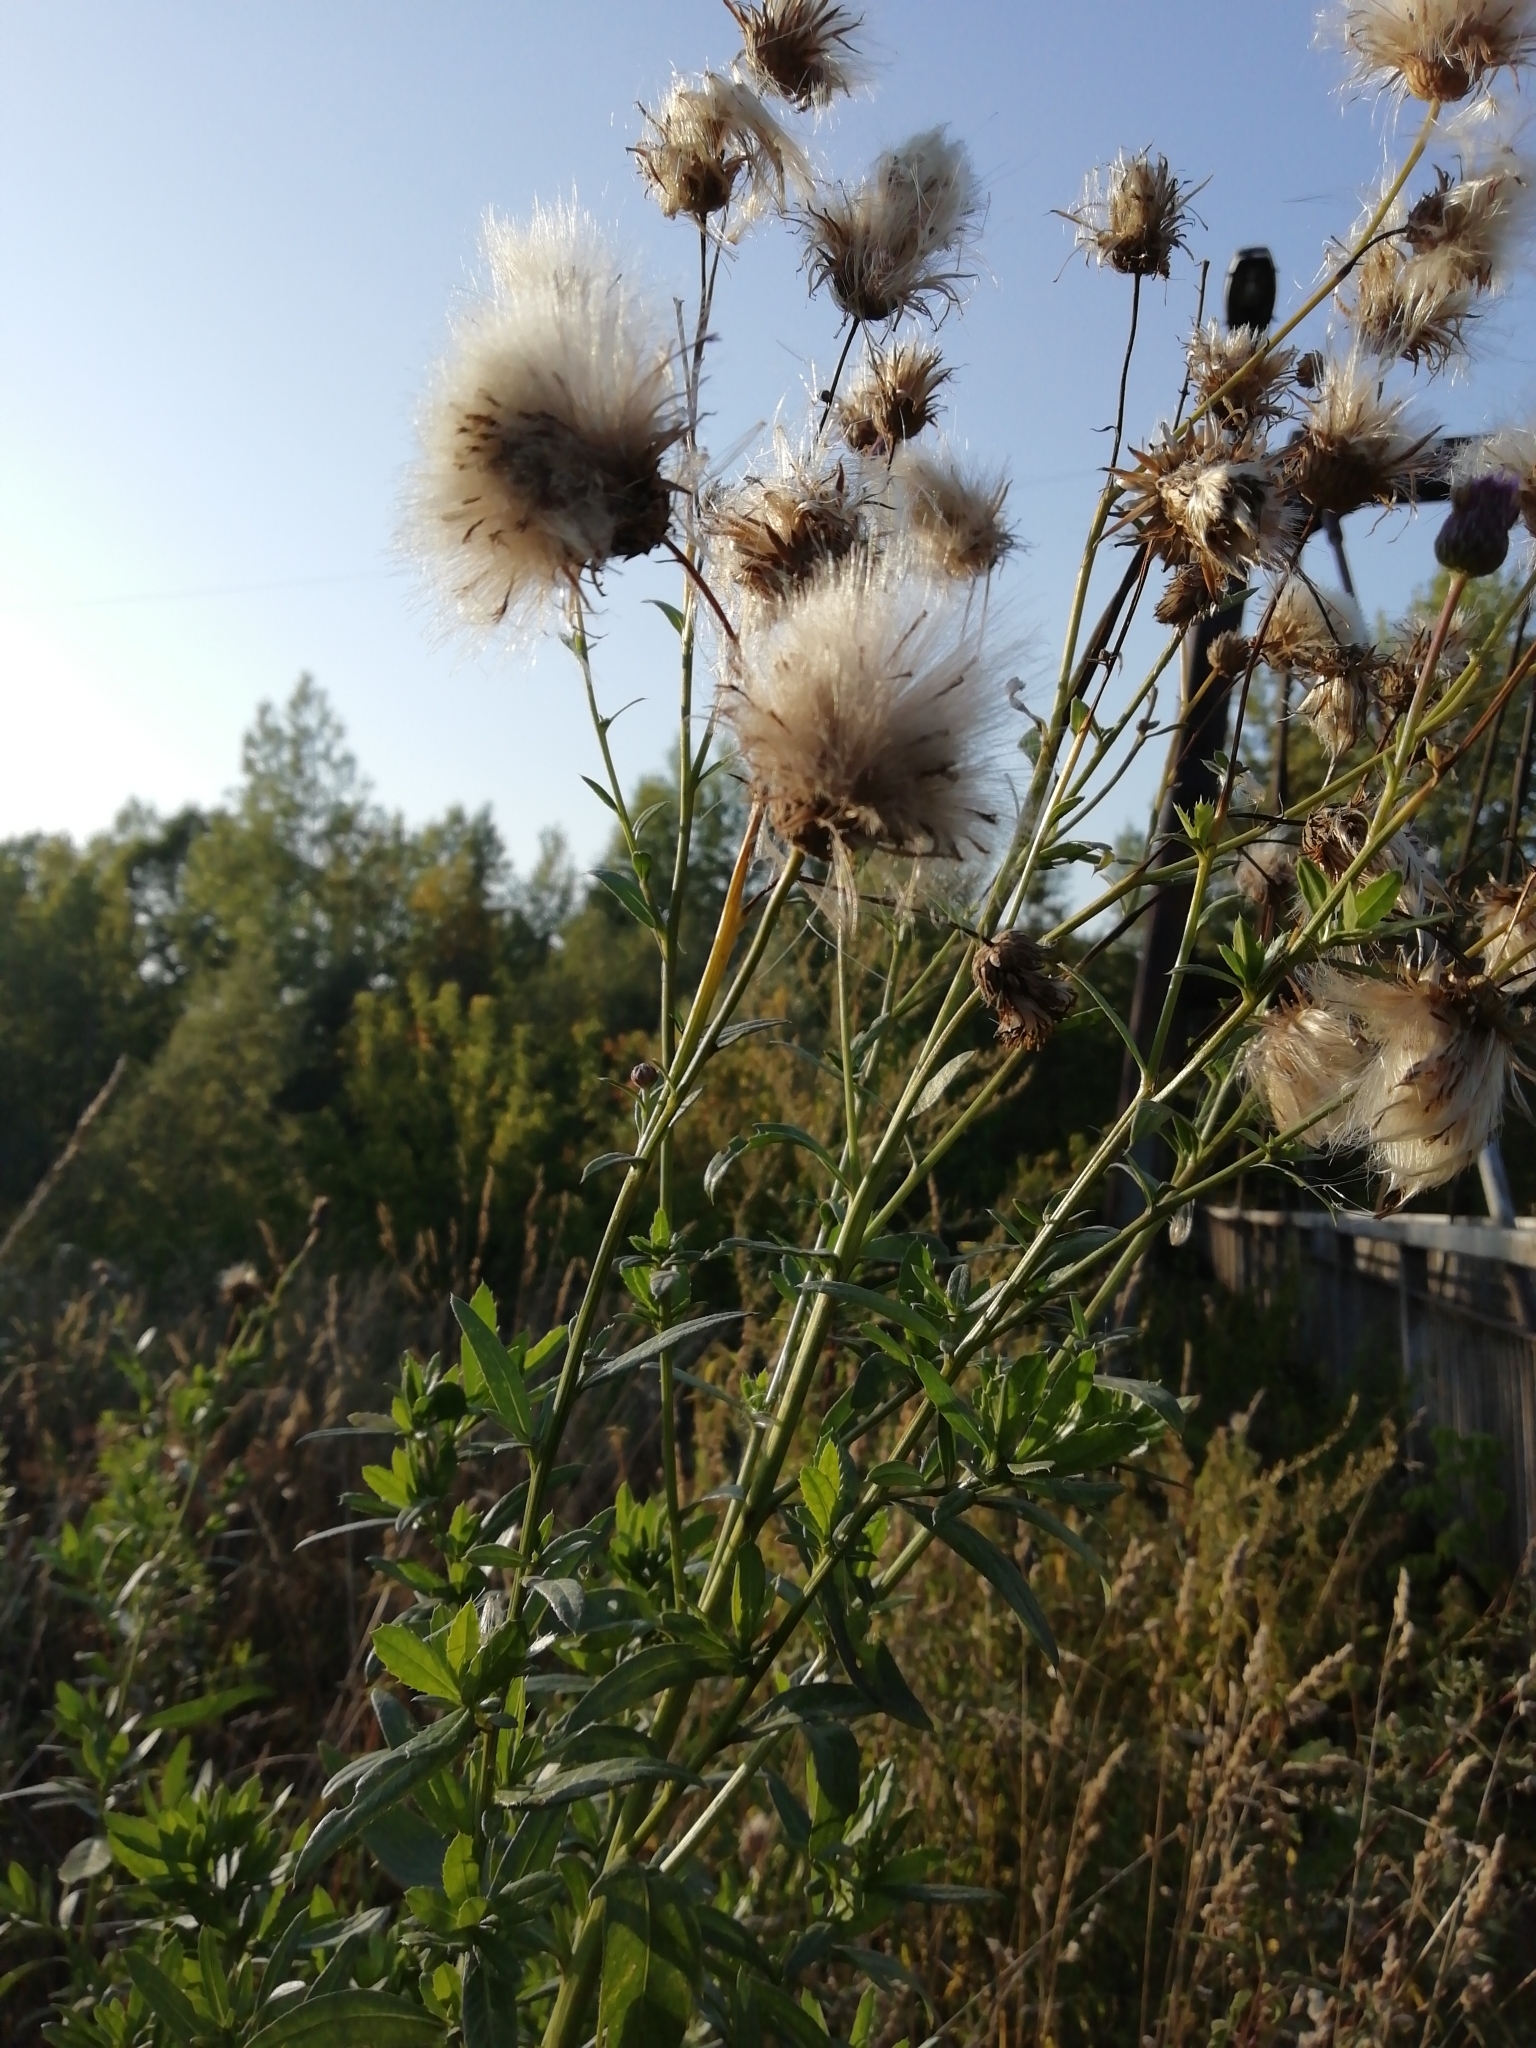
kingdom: Plantae
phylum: Tracheophyta
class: Magnoliopsida
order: Asterales
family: Asteraceae
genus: Cirsium
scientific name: Cirsium arvense
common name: Creeping thistle
